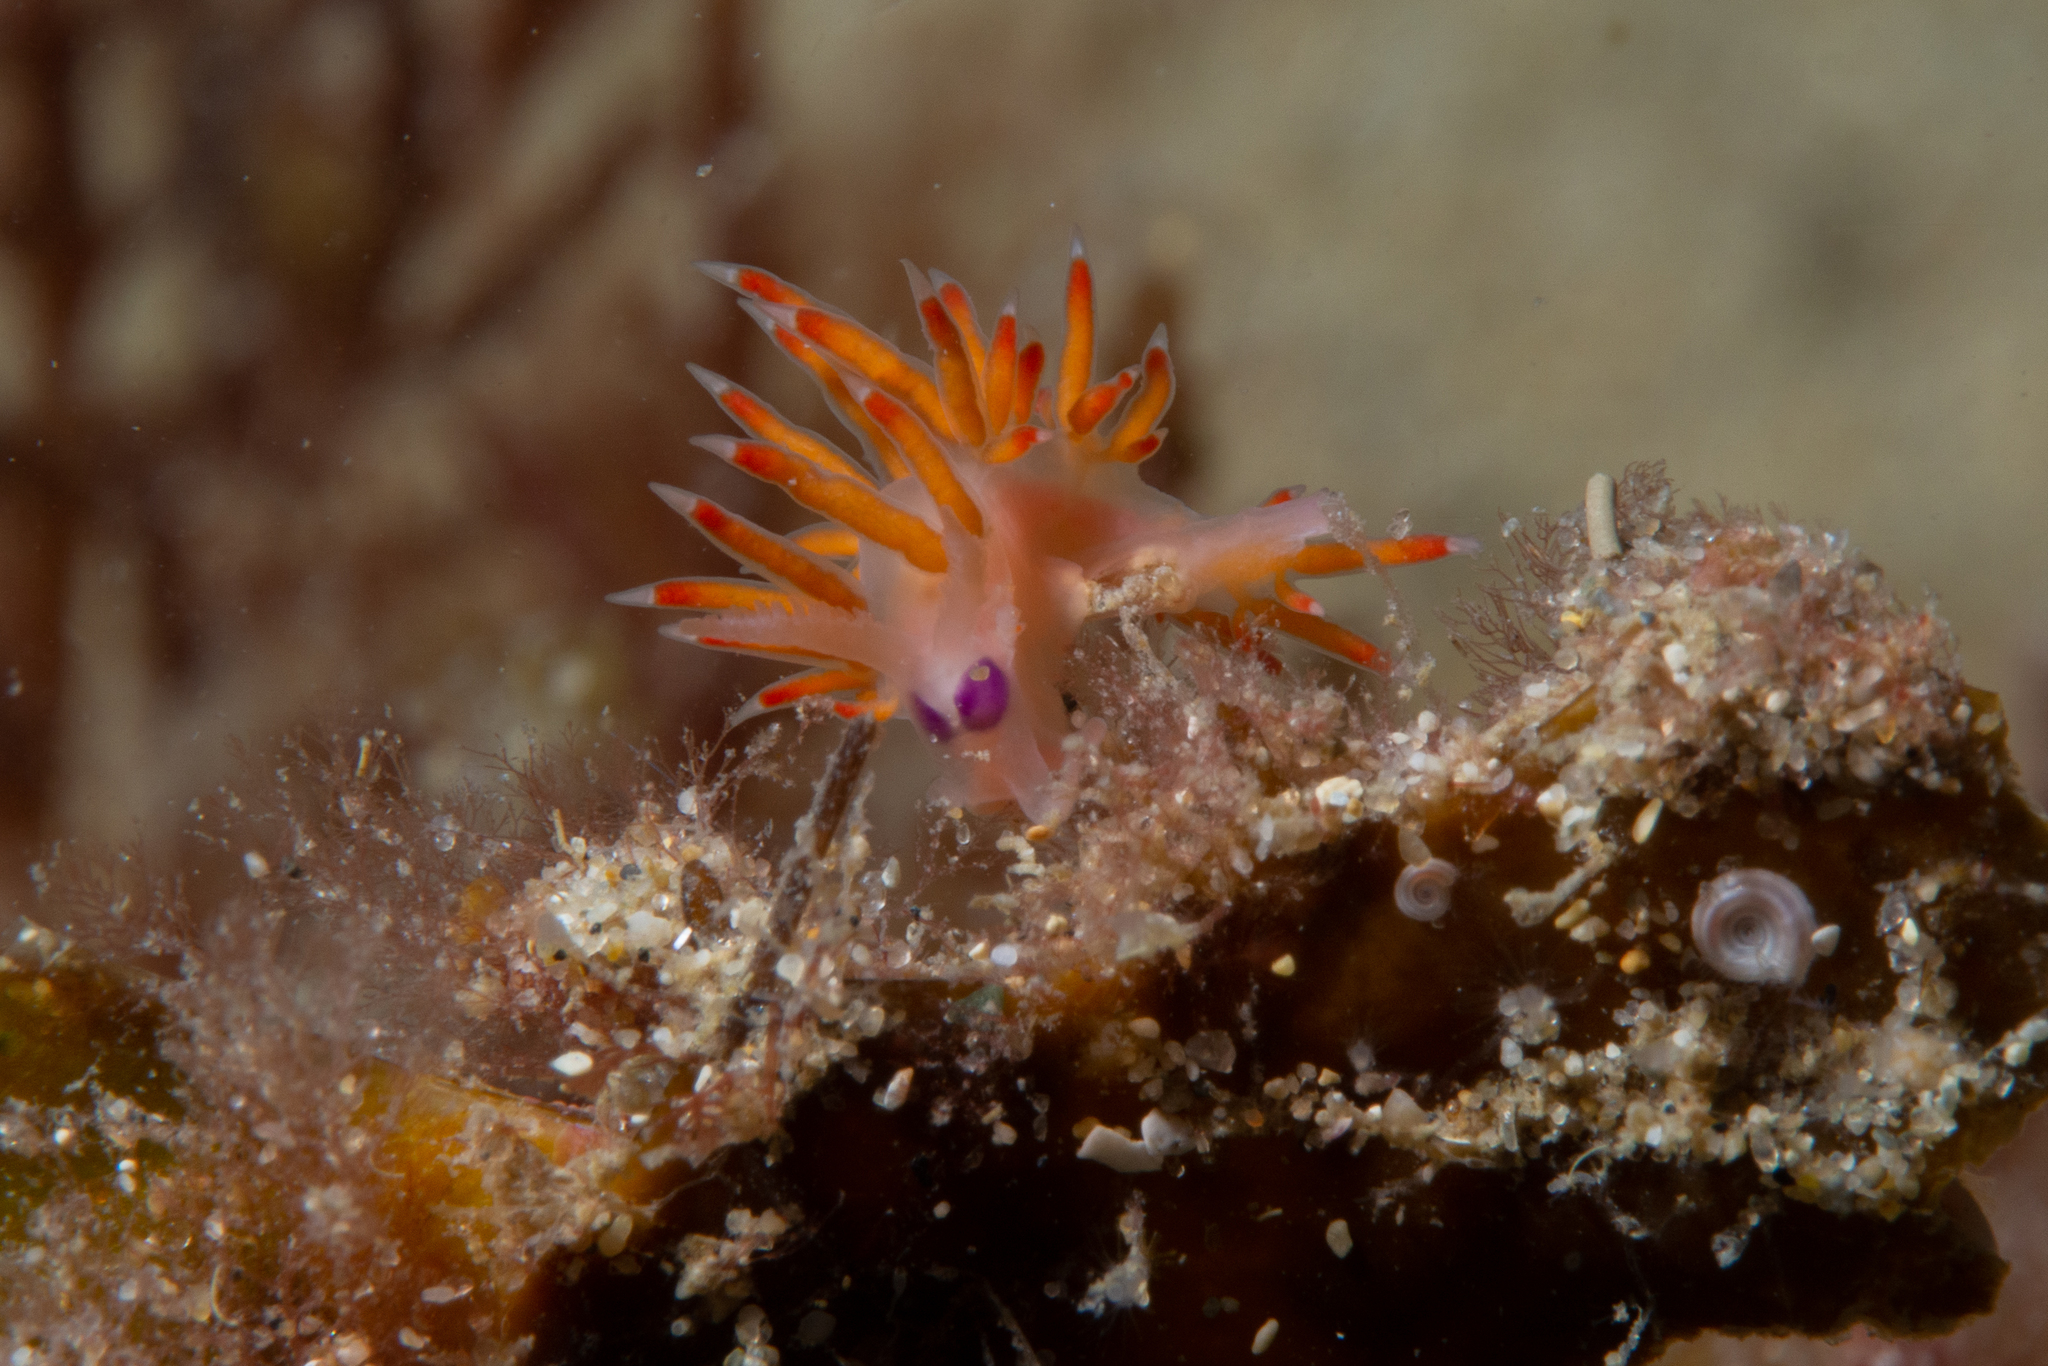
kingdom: Animalia
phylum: Mollusca
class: Gastropoda
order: Nudibranchia
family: Flabellinidae
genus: Coryphellina
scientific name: Coryphellina poenicia
